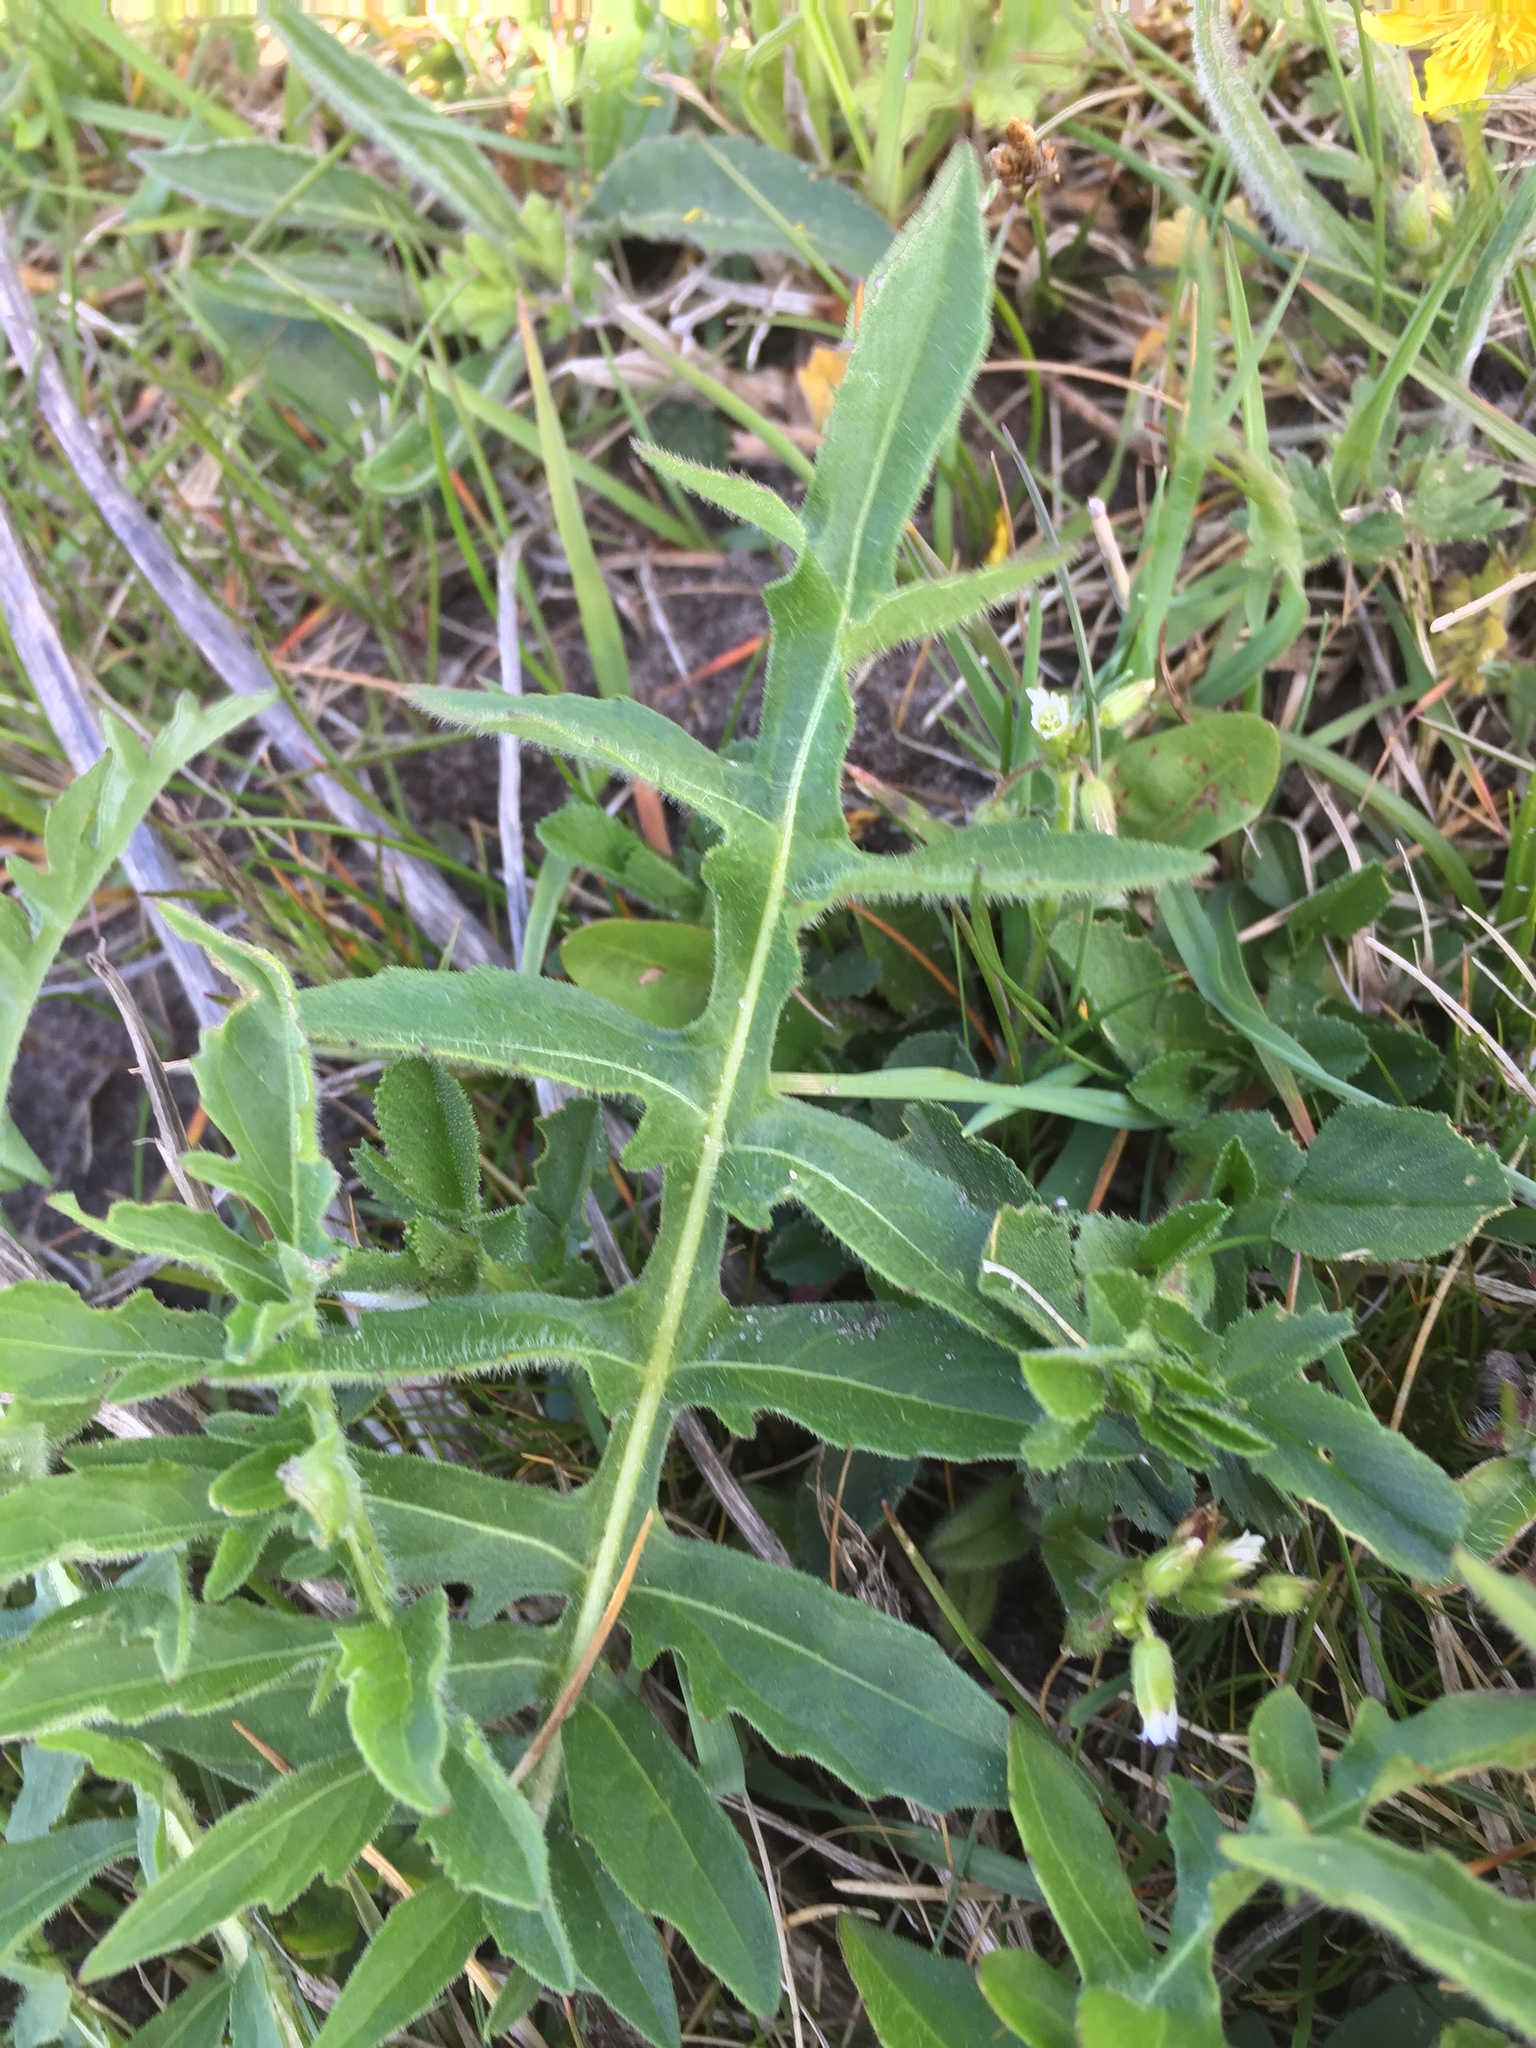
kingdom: Plantae
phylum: Tracheophyta
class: Magnoliopsida
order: Dipsacales
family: Caprifoliaceae
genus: Knautia
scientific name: Knautia arvensis
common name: Field scabiosa
